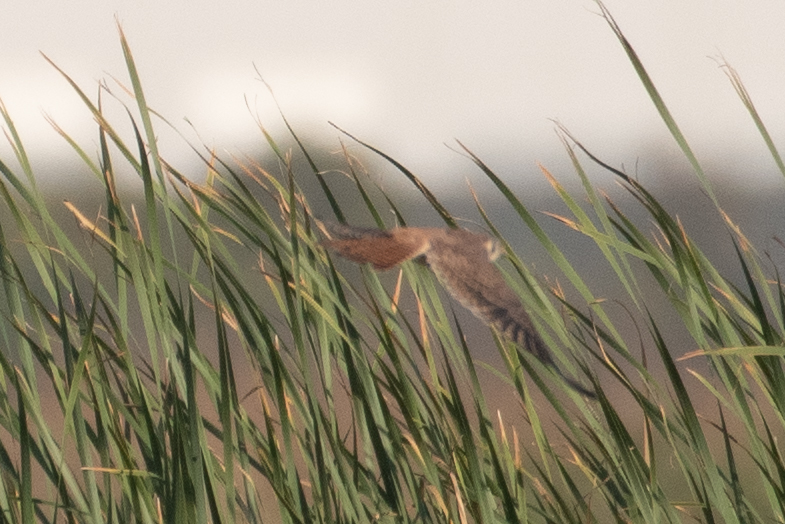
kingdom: Animalia
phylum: Chordata
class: Aves
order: Falconiformes
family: Falconidae
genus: Falco
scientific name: Falco sparverius
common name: American kestrel
